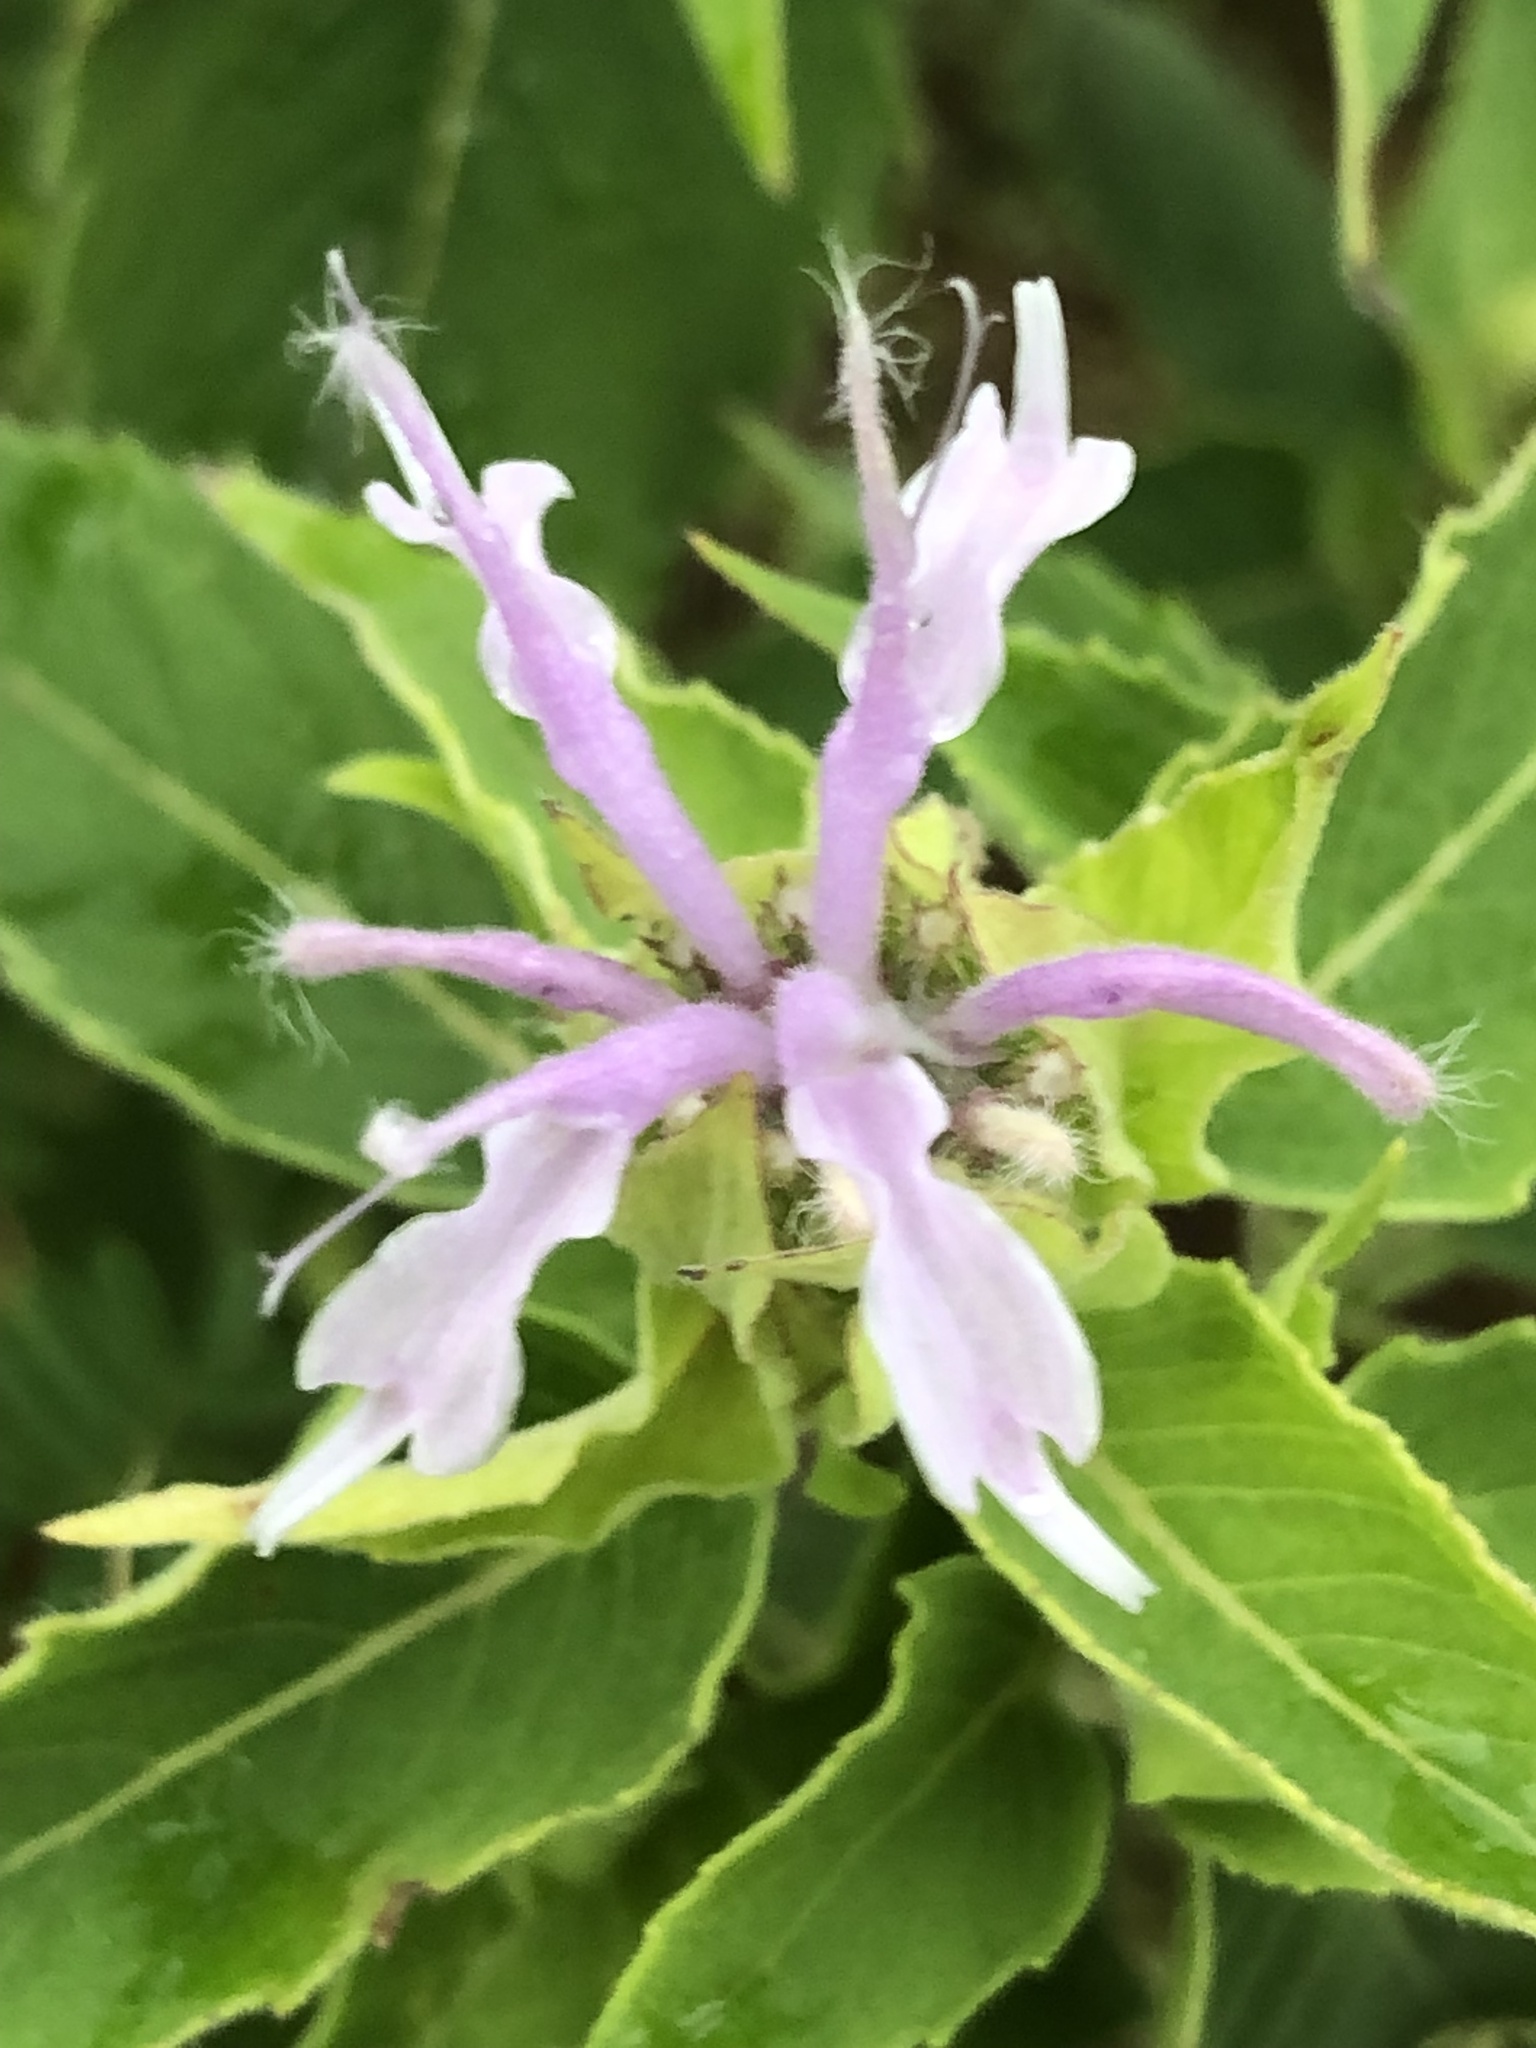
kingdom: Plantae
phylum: Tracheophyta
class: Magnoliopsida
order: Lamiales
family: Lamiaceae
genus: Monarda
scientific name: Monarda fistulosa
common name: Purple beebalm
